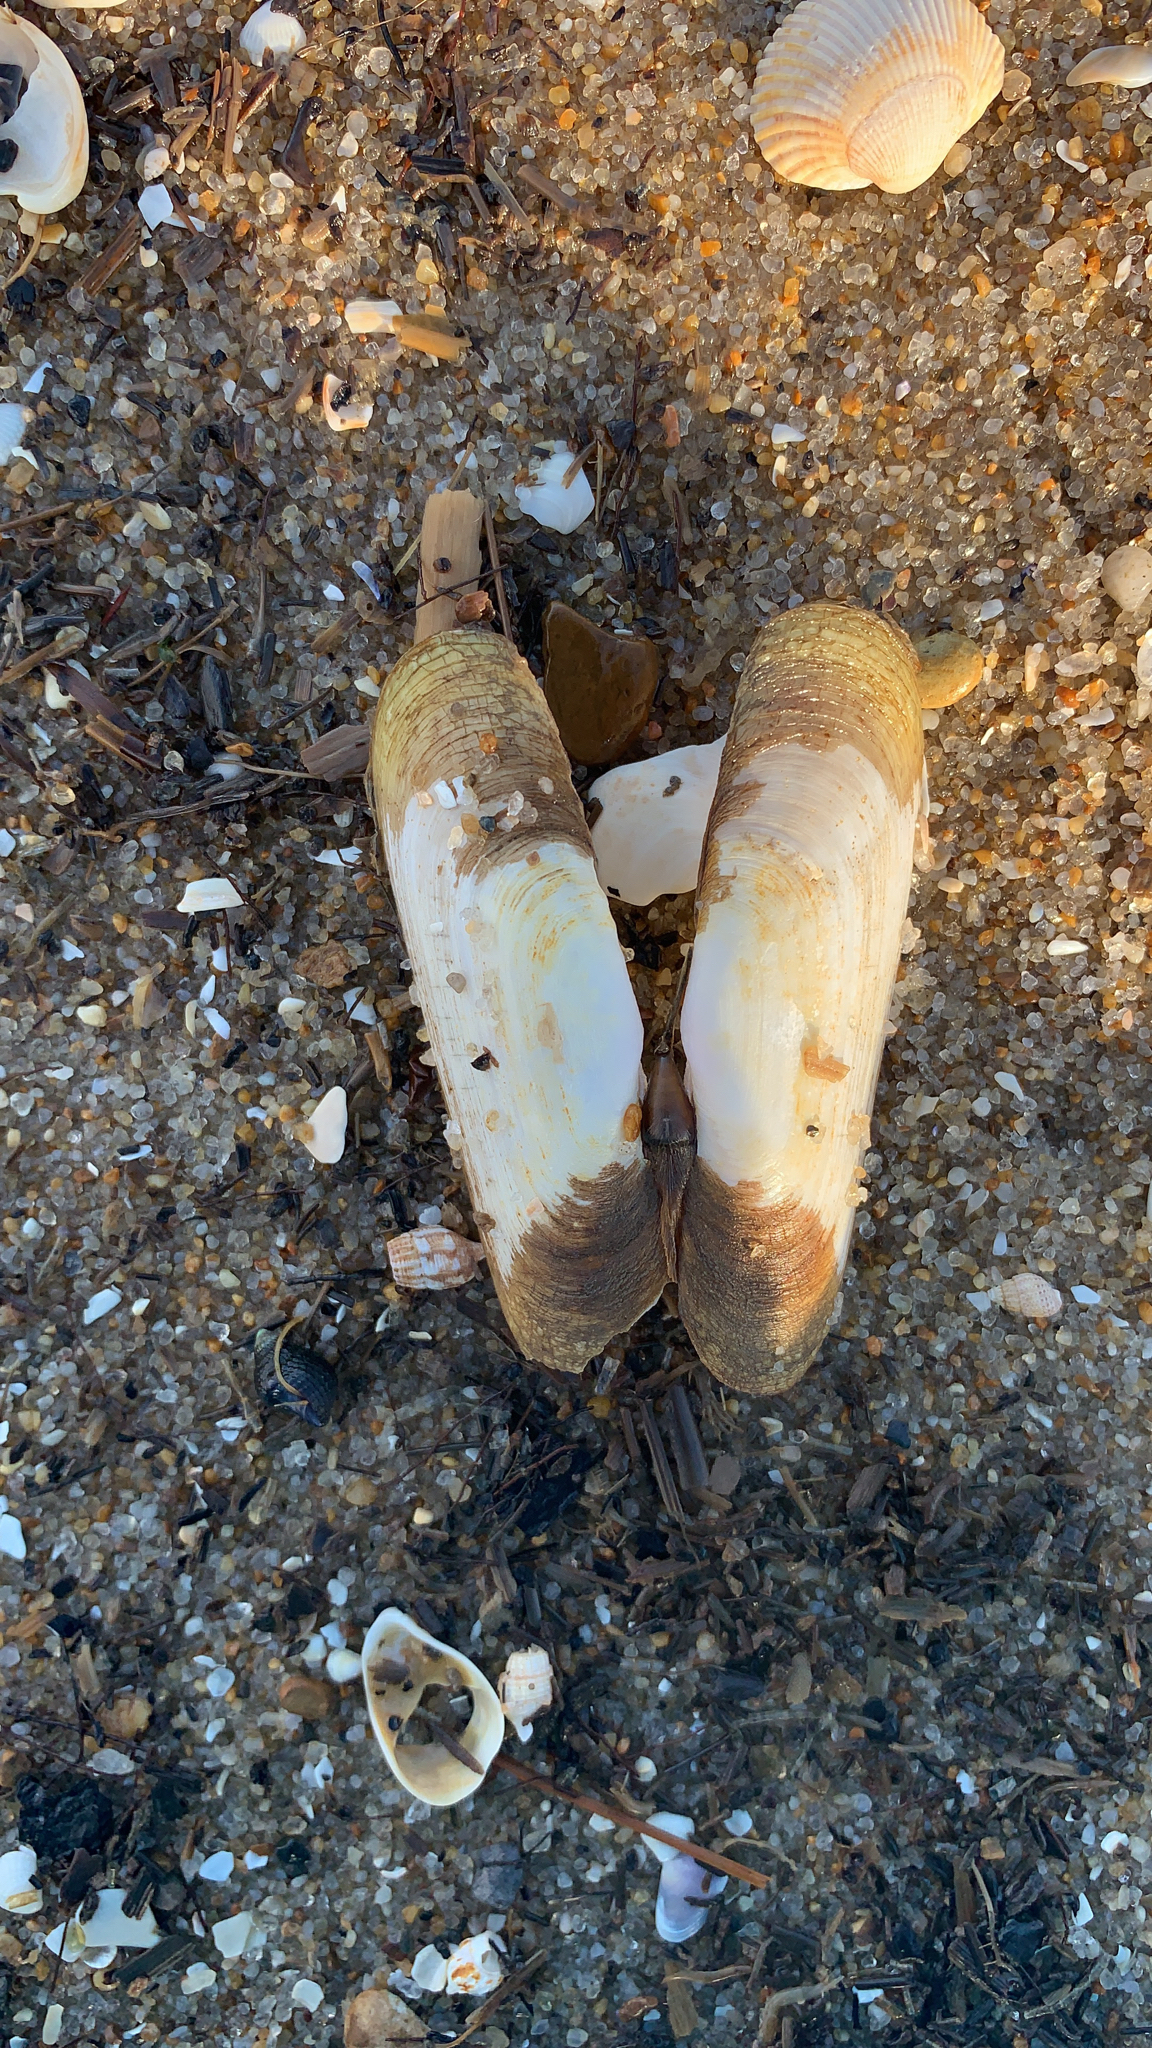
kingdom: Animalia
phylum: Mollusca
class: Bivalvia
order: Cardiida
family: Solecurtidae
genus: Tagelus
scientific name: Tagelus plebeius
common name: Stout tagelus
